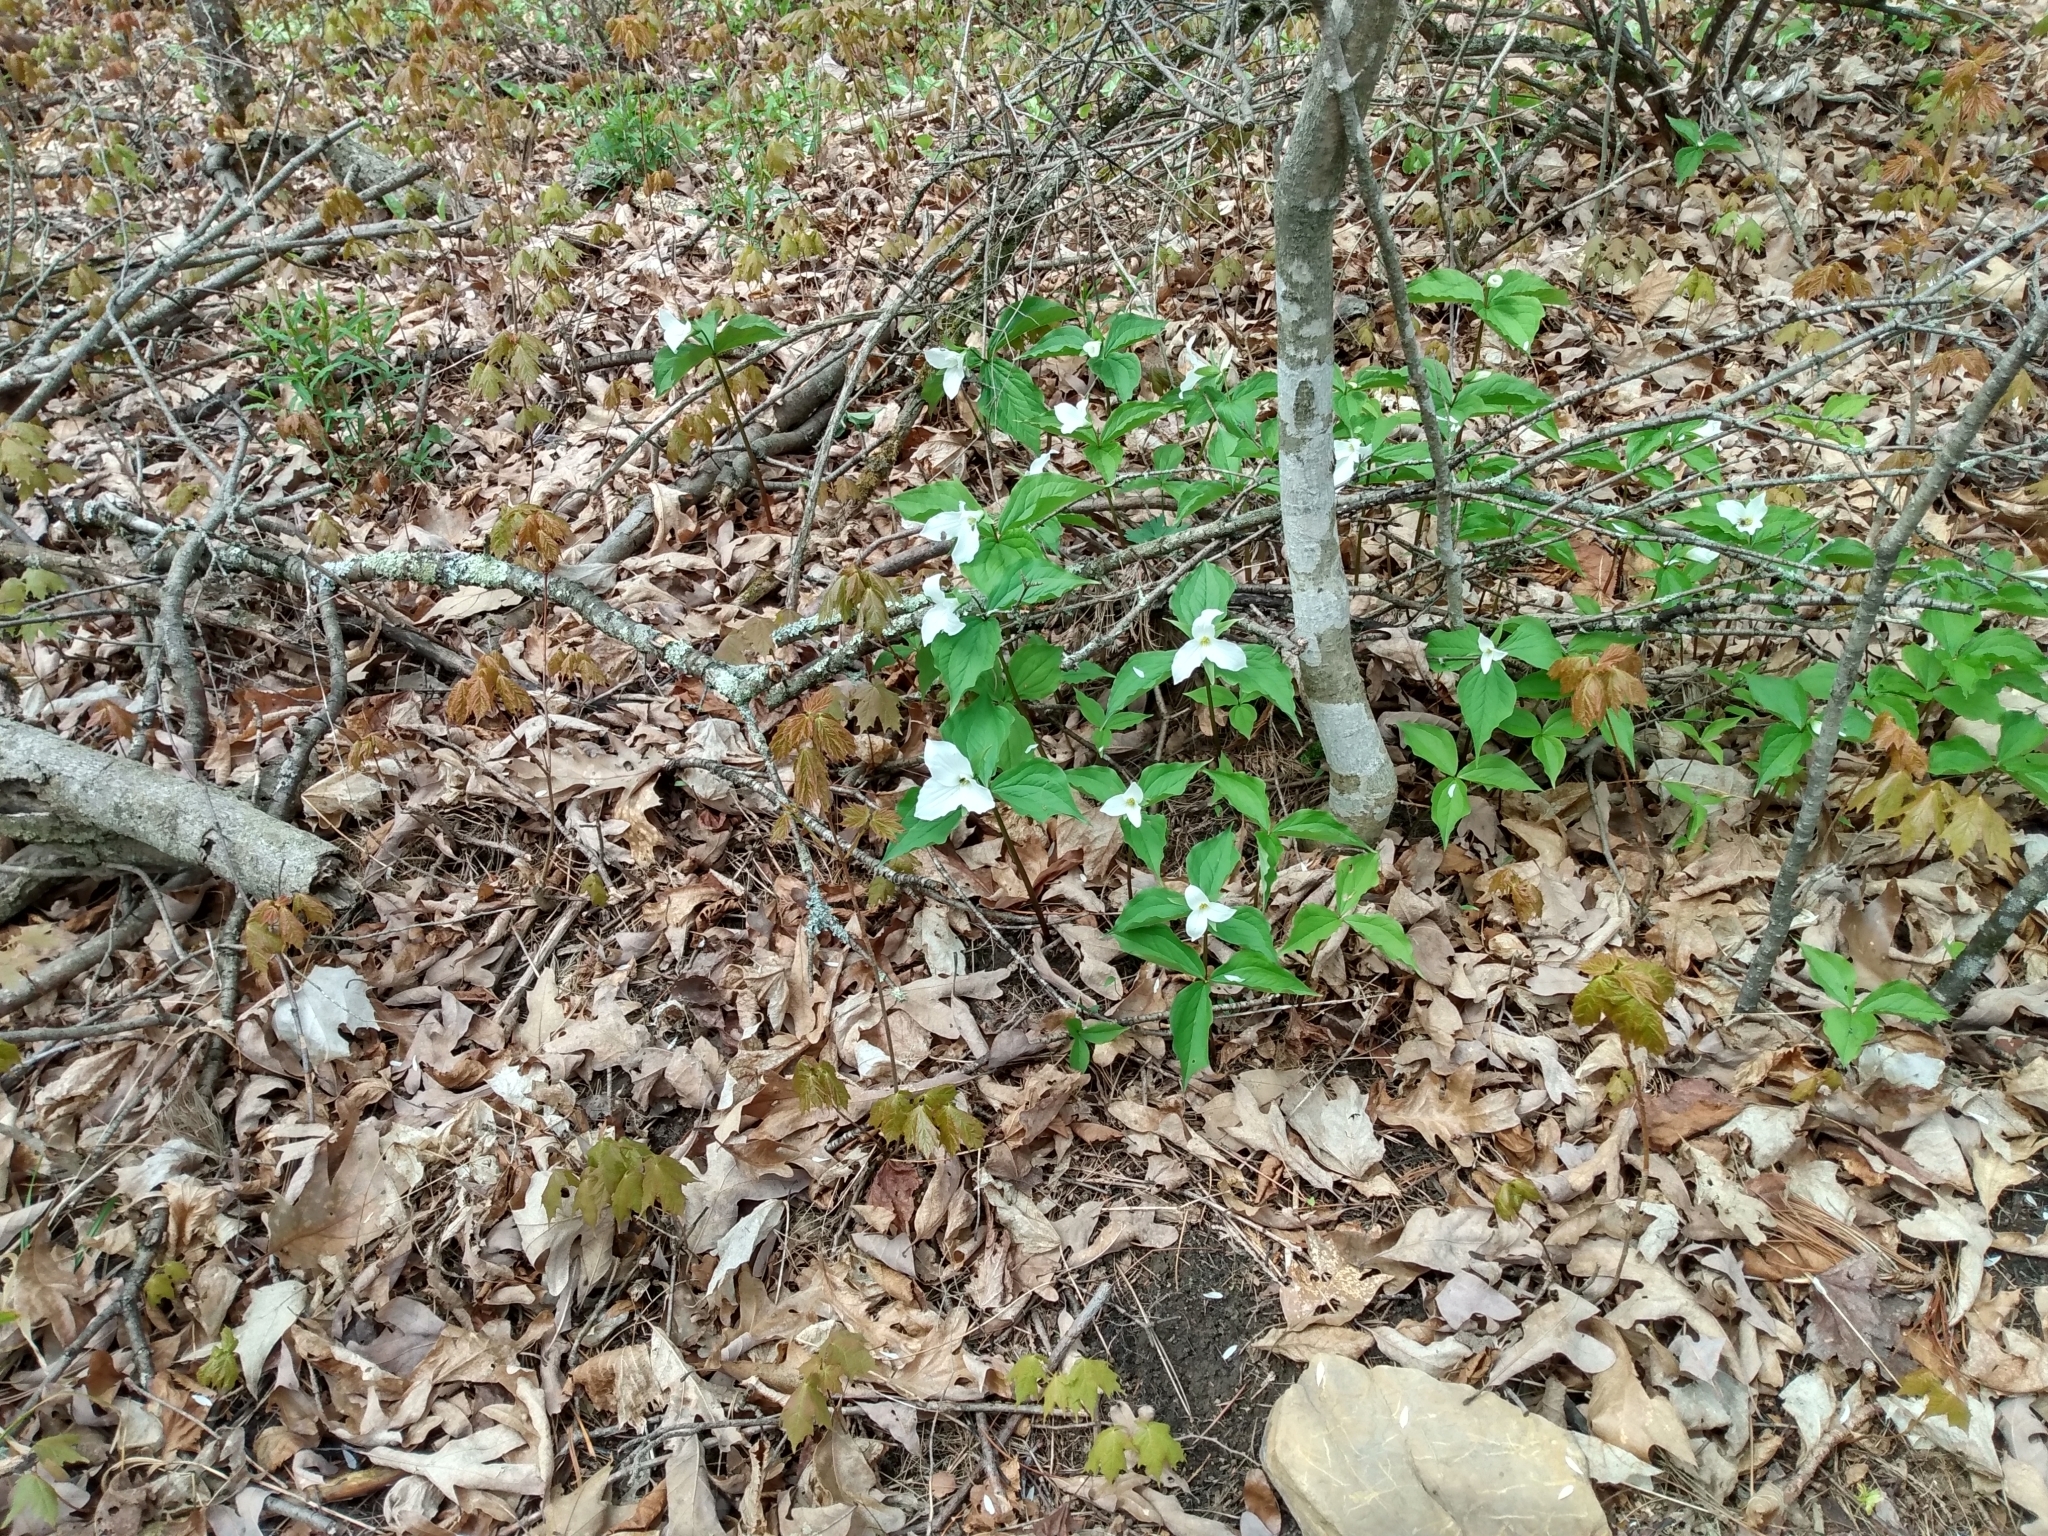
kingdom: Plantae
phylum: Tracheophyta
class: Liliopsida
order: Liliales
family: Melanthiaceae
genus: Trillium
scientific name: Trillium grandiflorum
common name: Great white trillium
